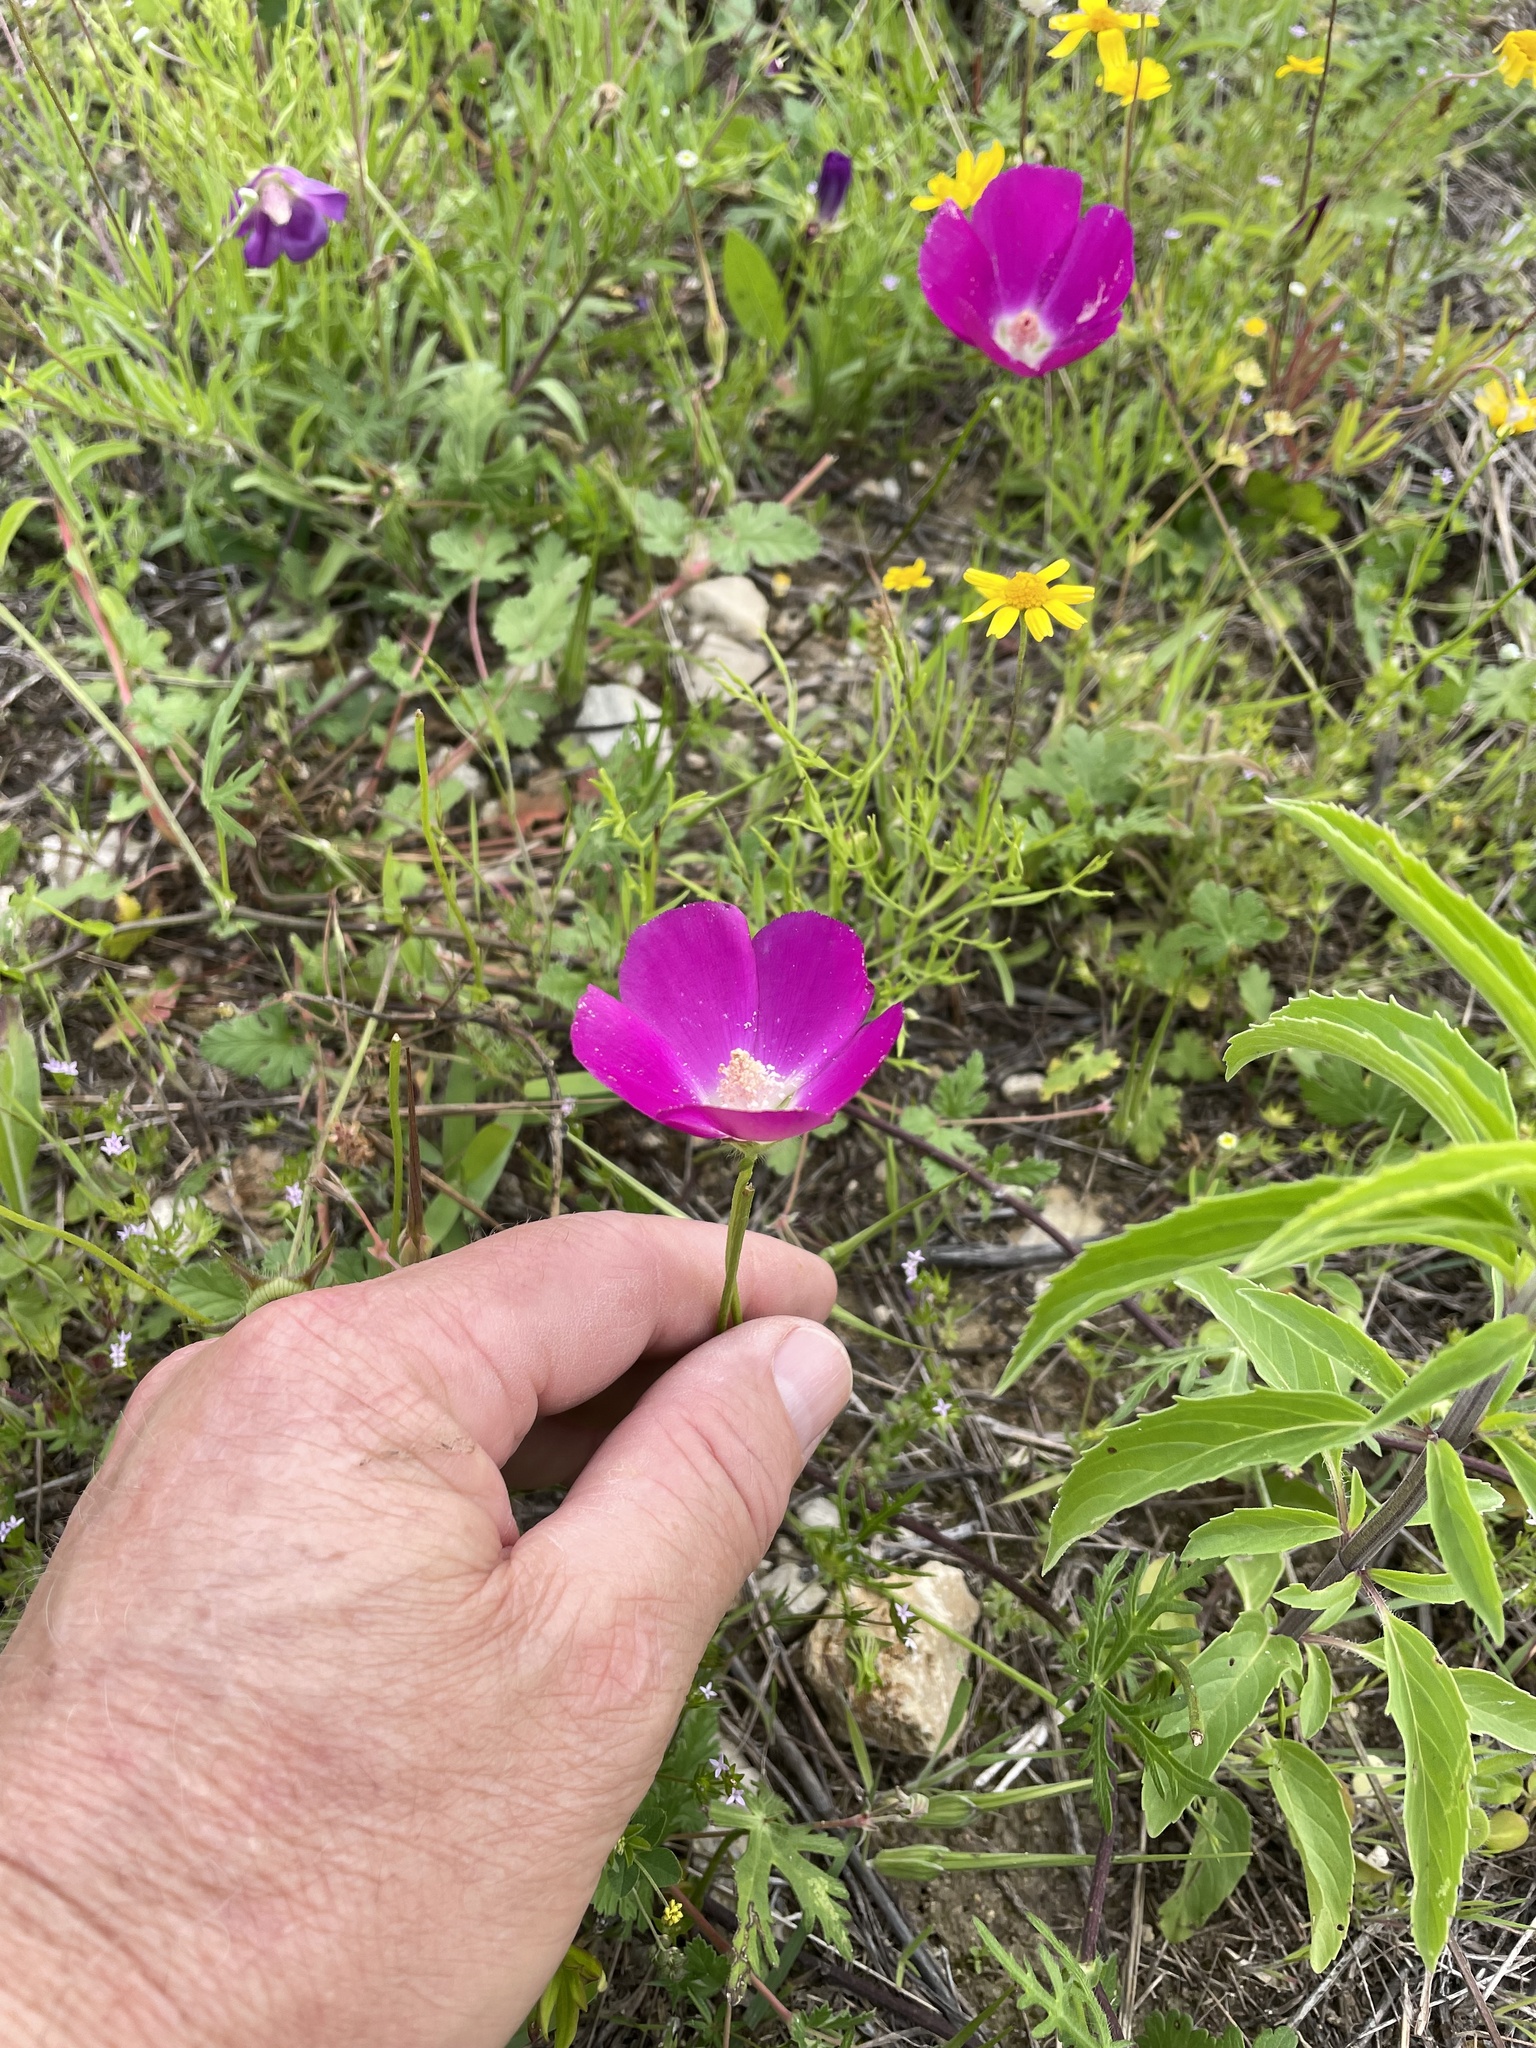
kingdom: Plantae
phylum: Tracheophyta
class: Magnoliopsida
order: Malvales
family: Malvaceae
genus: Callirhoe
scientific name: Callirhoe involucrata
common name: Purple poppy-mallow
